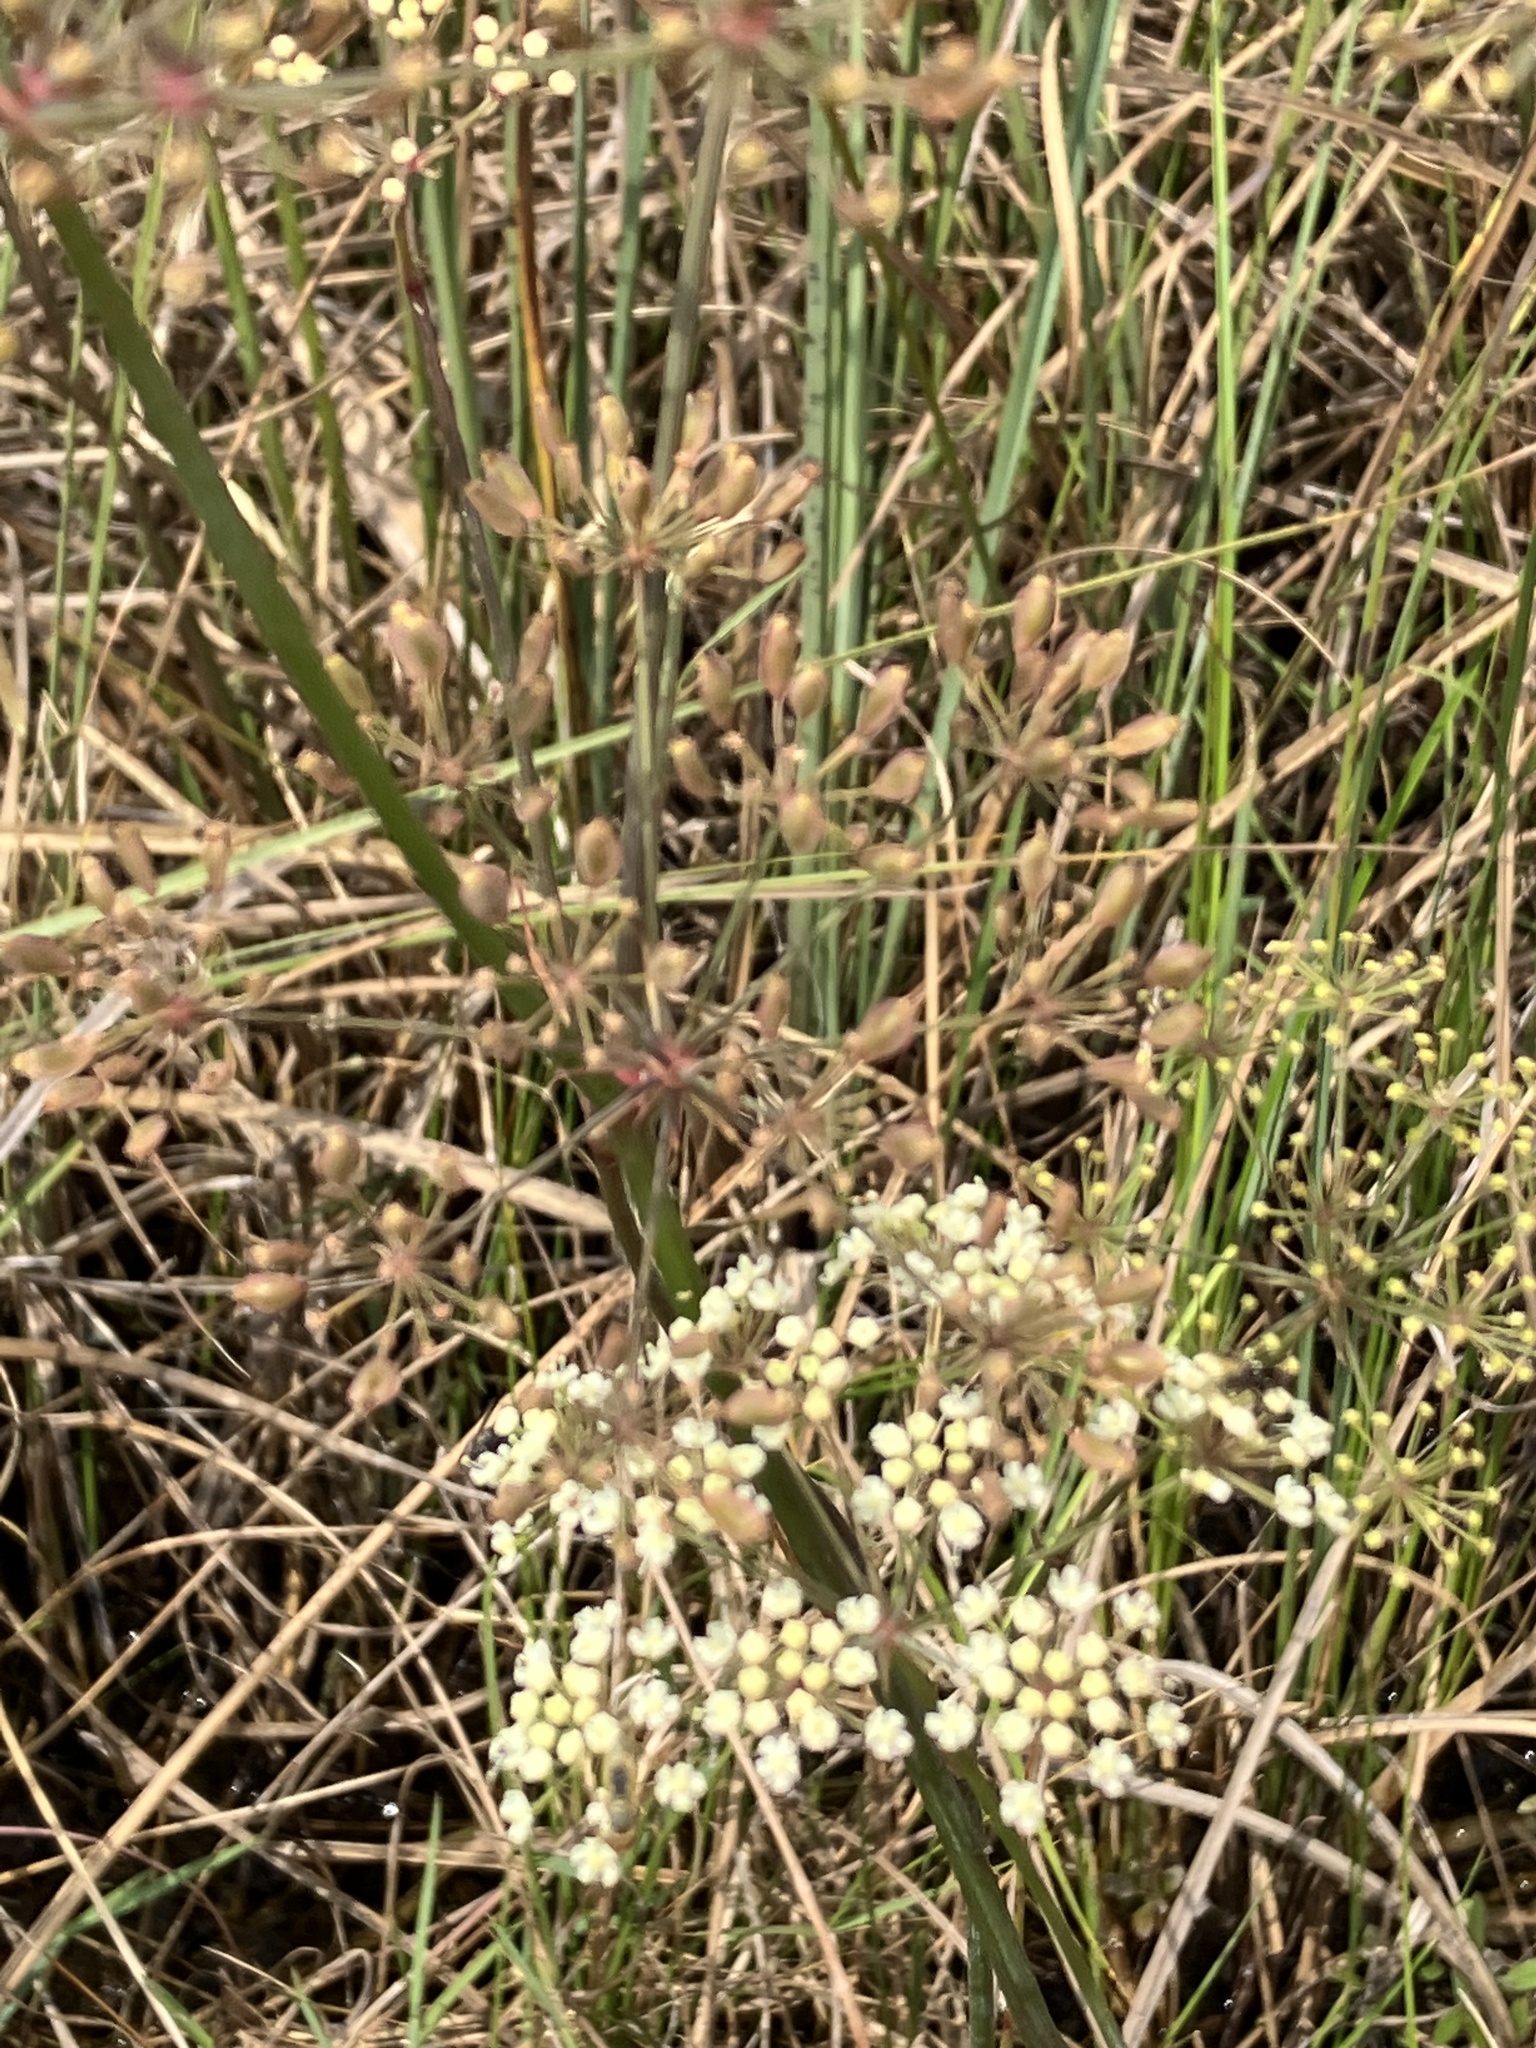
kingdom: Plantae
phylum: Tracheophyta
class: Magnoliopsida
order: Apiales
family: Apiaceae
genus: Tiedemannia
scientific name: Tiedemannia filiformis
